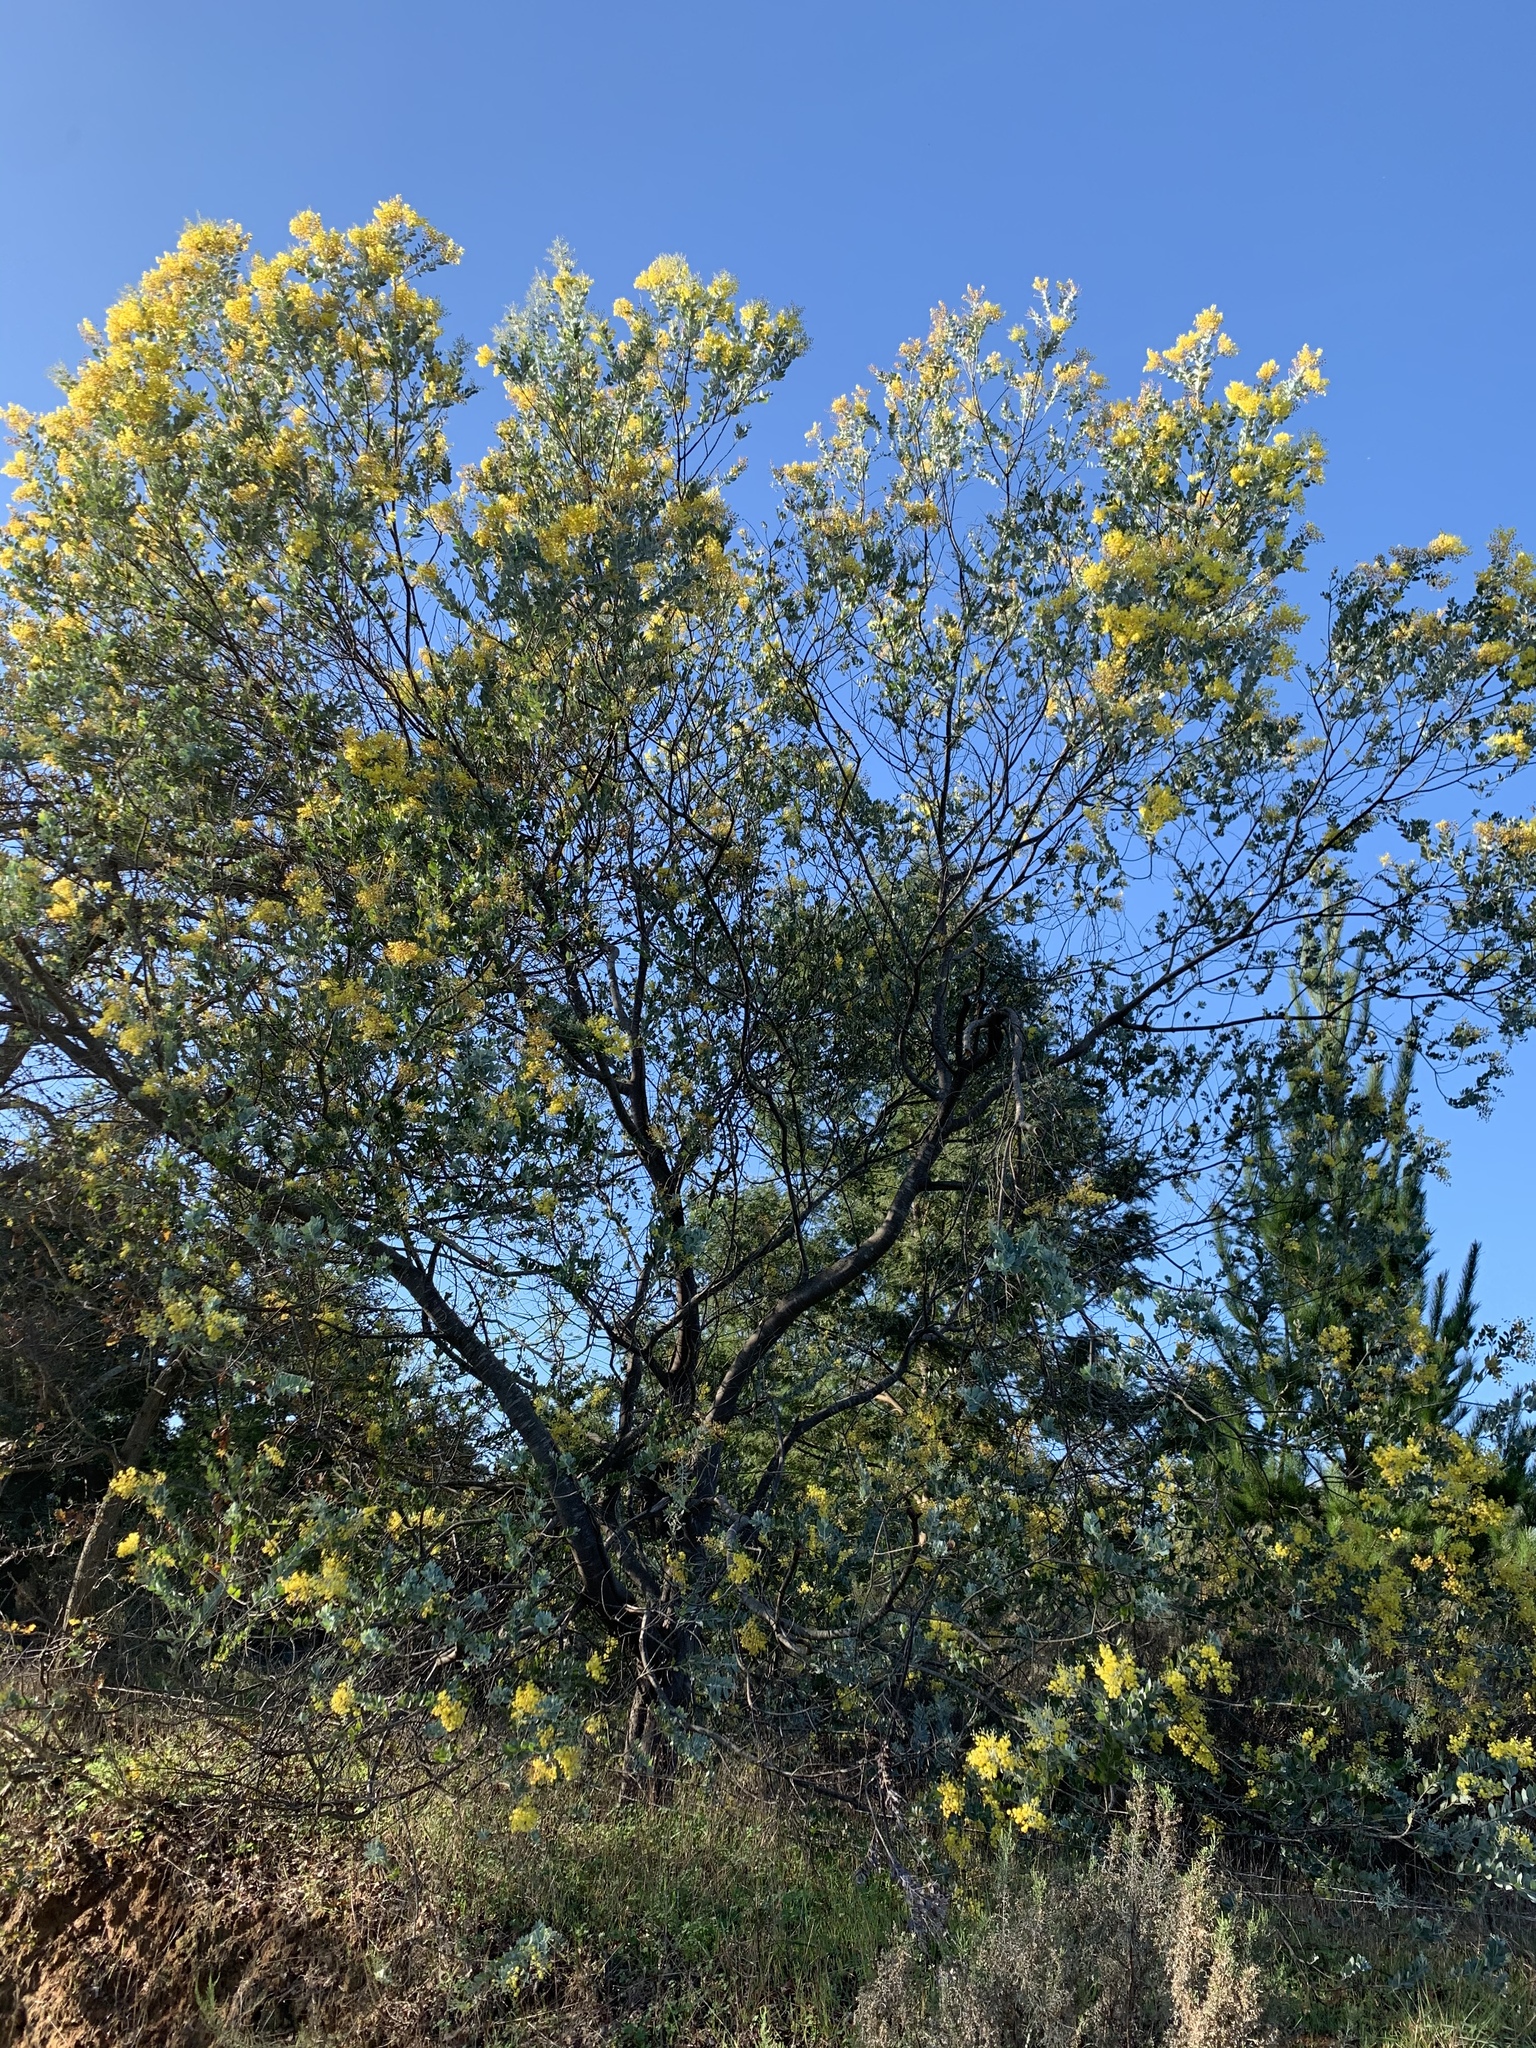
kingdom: Plantae
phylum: Tracheophyta
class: Magnoliopsida
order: Fabales
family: Fabaceae
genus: Acacia
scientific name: Acacia podalyriifolia
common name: Pearl wattle
